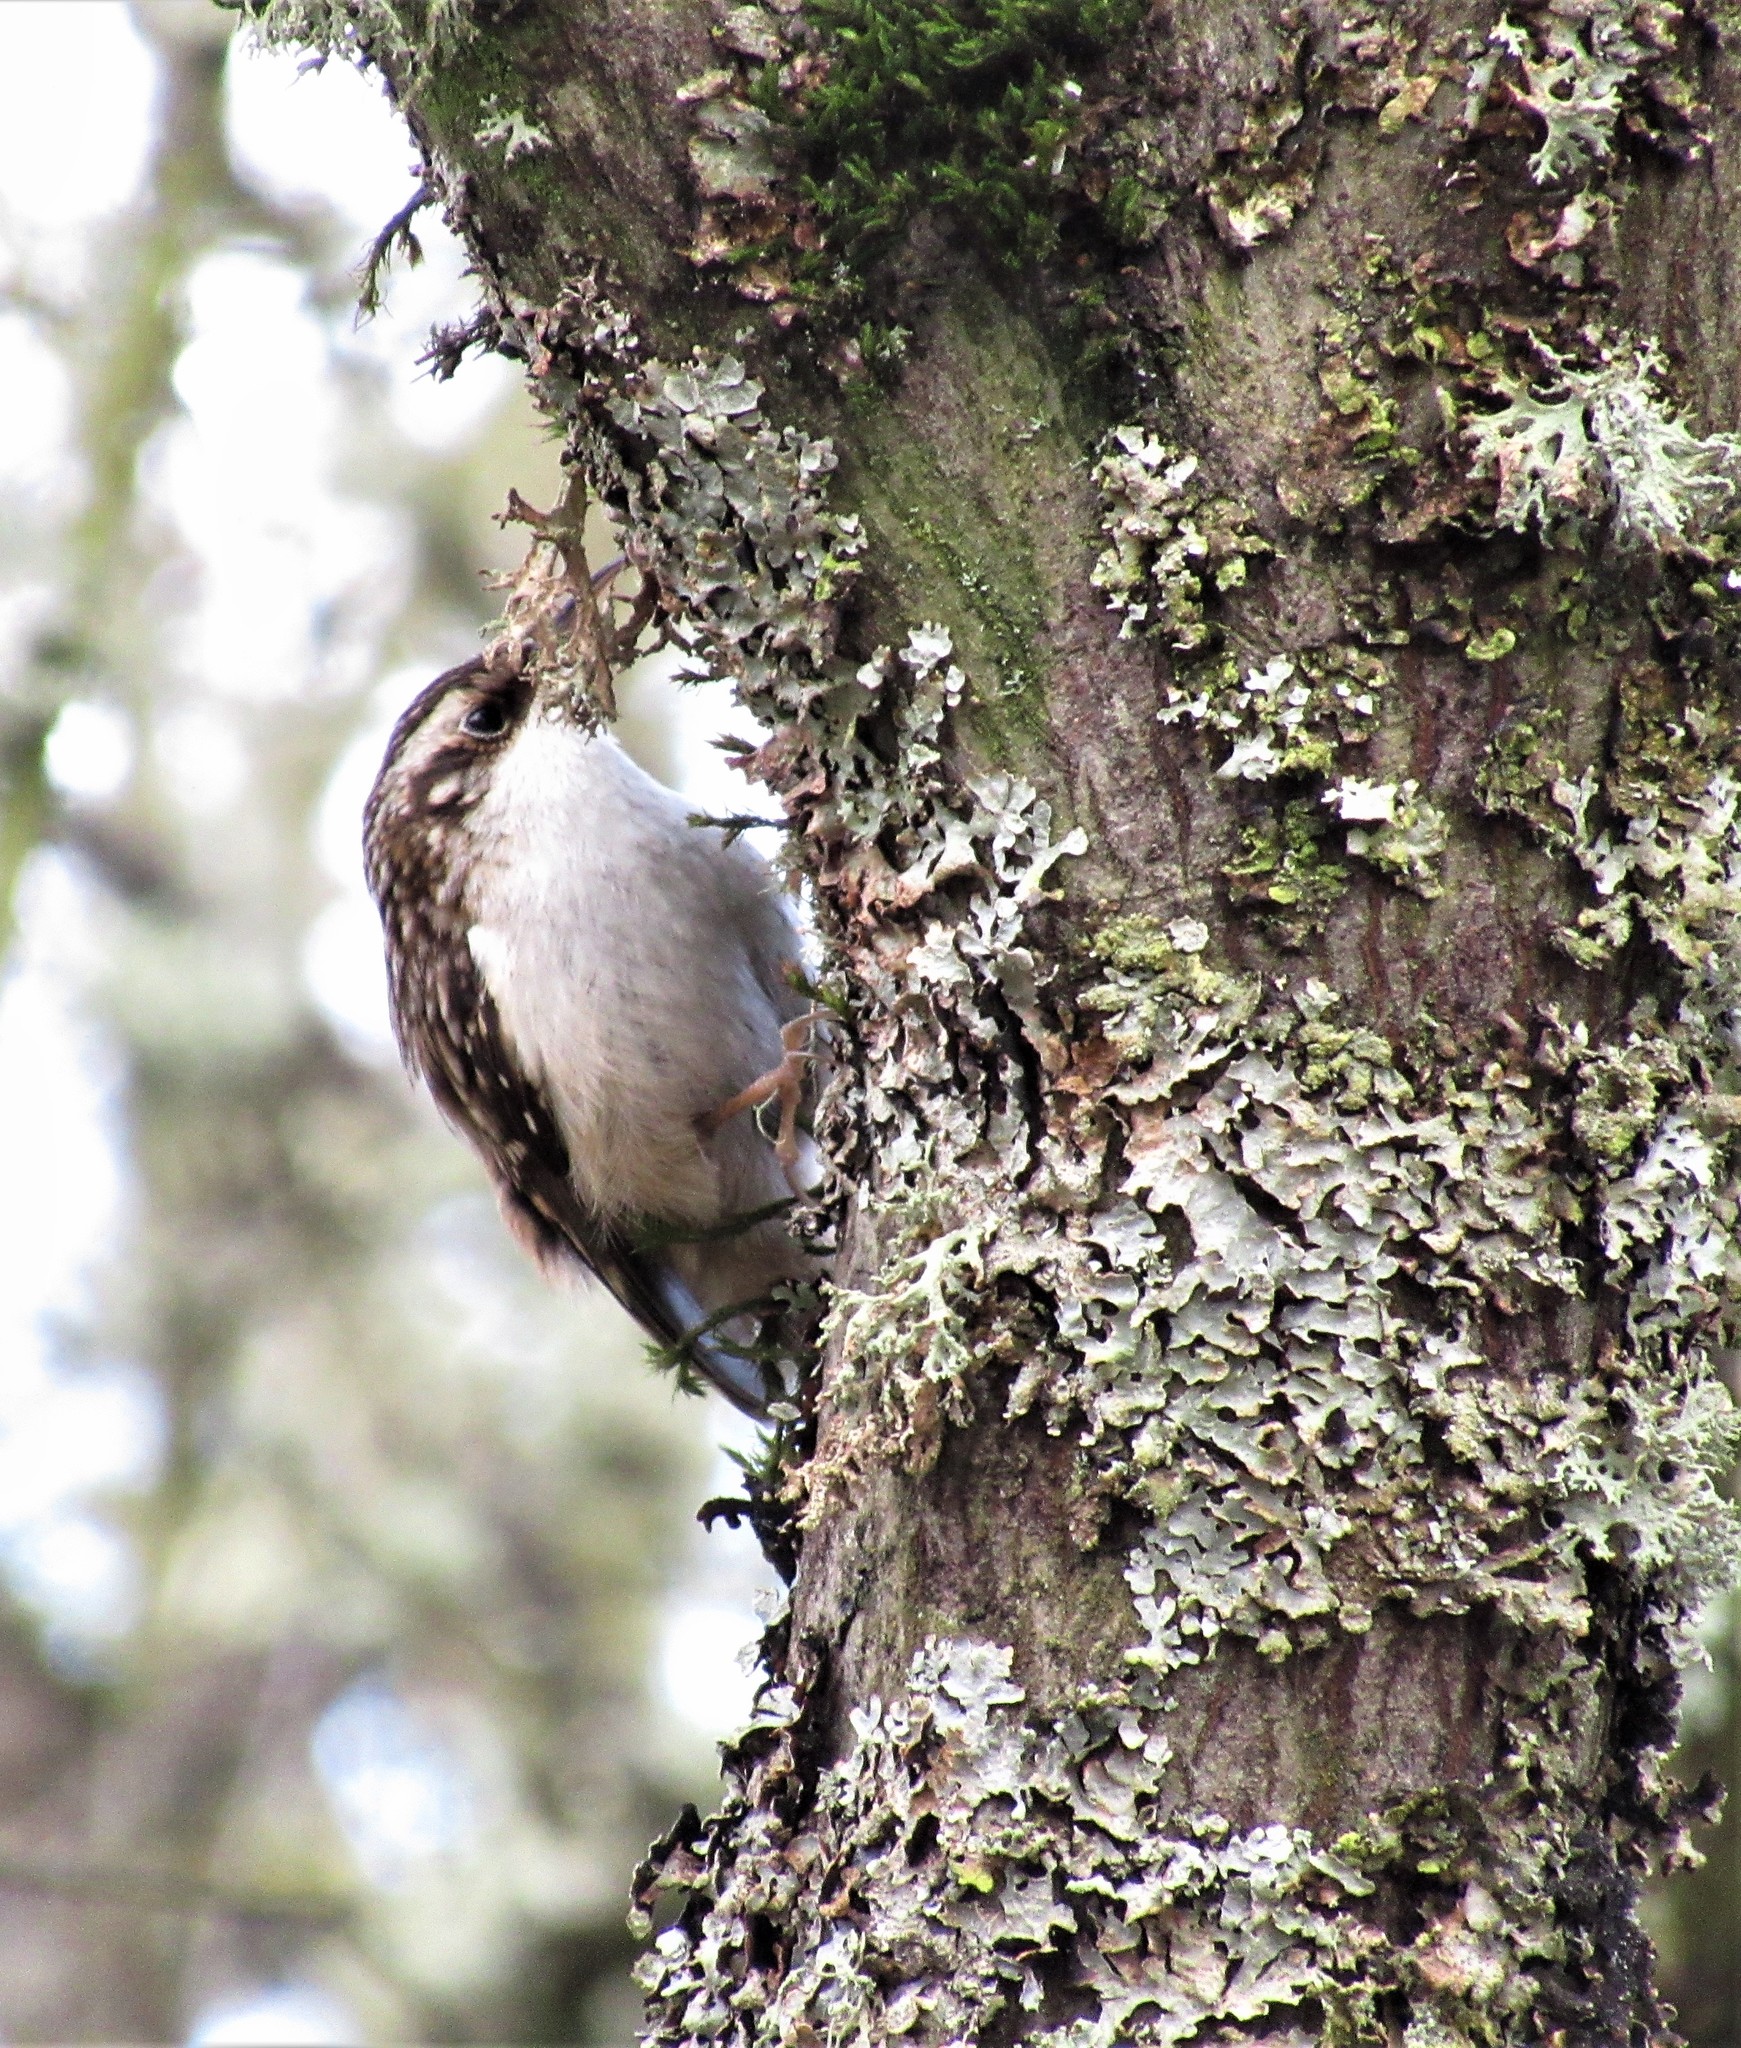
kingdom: Animalia
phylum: Chordata
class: Aves
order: Passeriformes
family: Certhiidae
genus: Certhia
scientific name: Certhia americana
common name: Brown creeper
